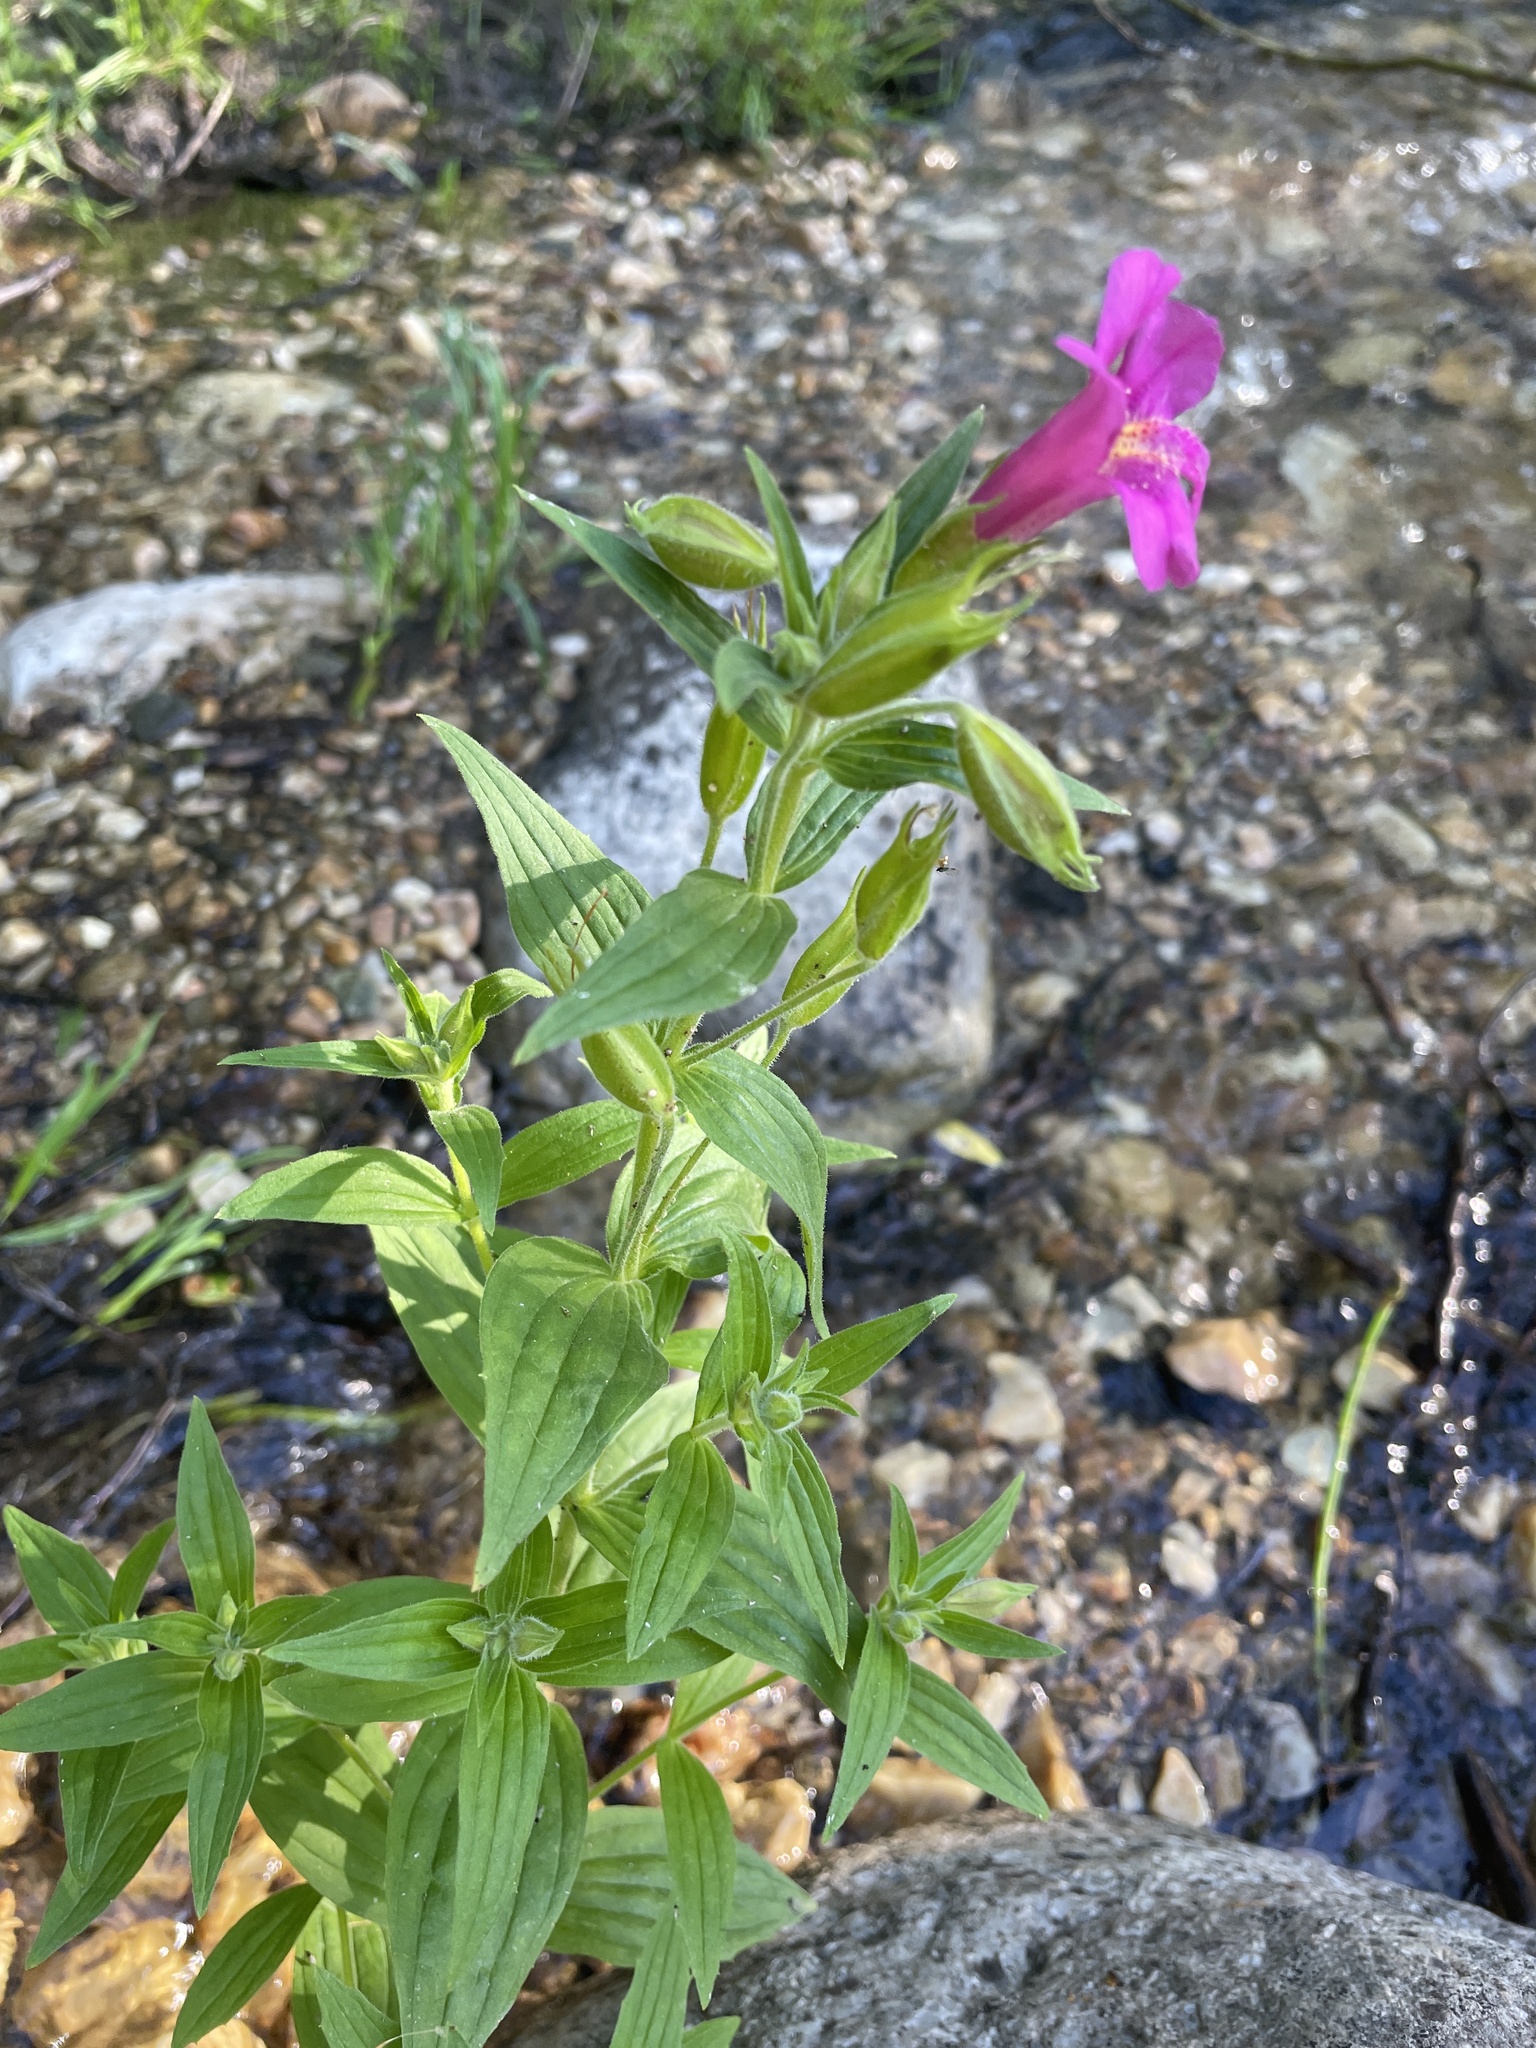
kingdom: Plantae
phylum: Tracheophyta
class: Magnoliopsida
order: Lamiales
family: Phrymaceae
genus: Erythranthe
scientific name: Erythranthe lewisii
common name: Lewis's monkey-flower
